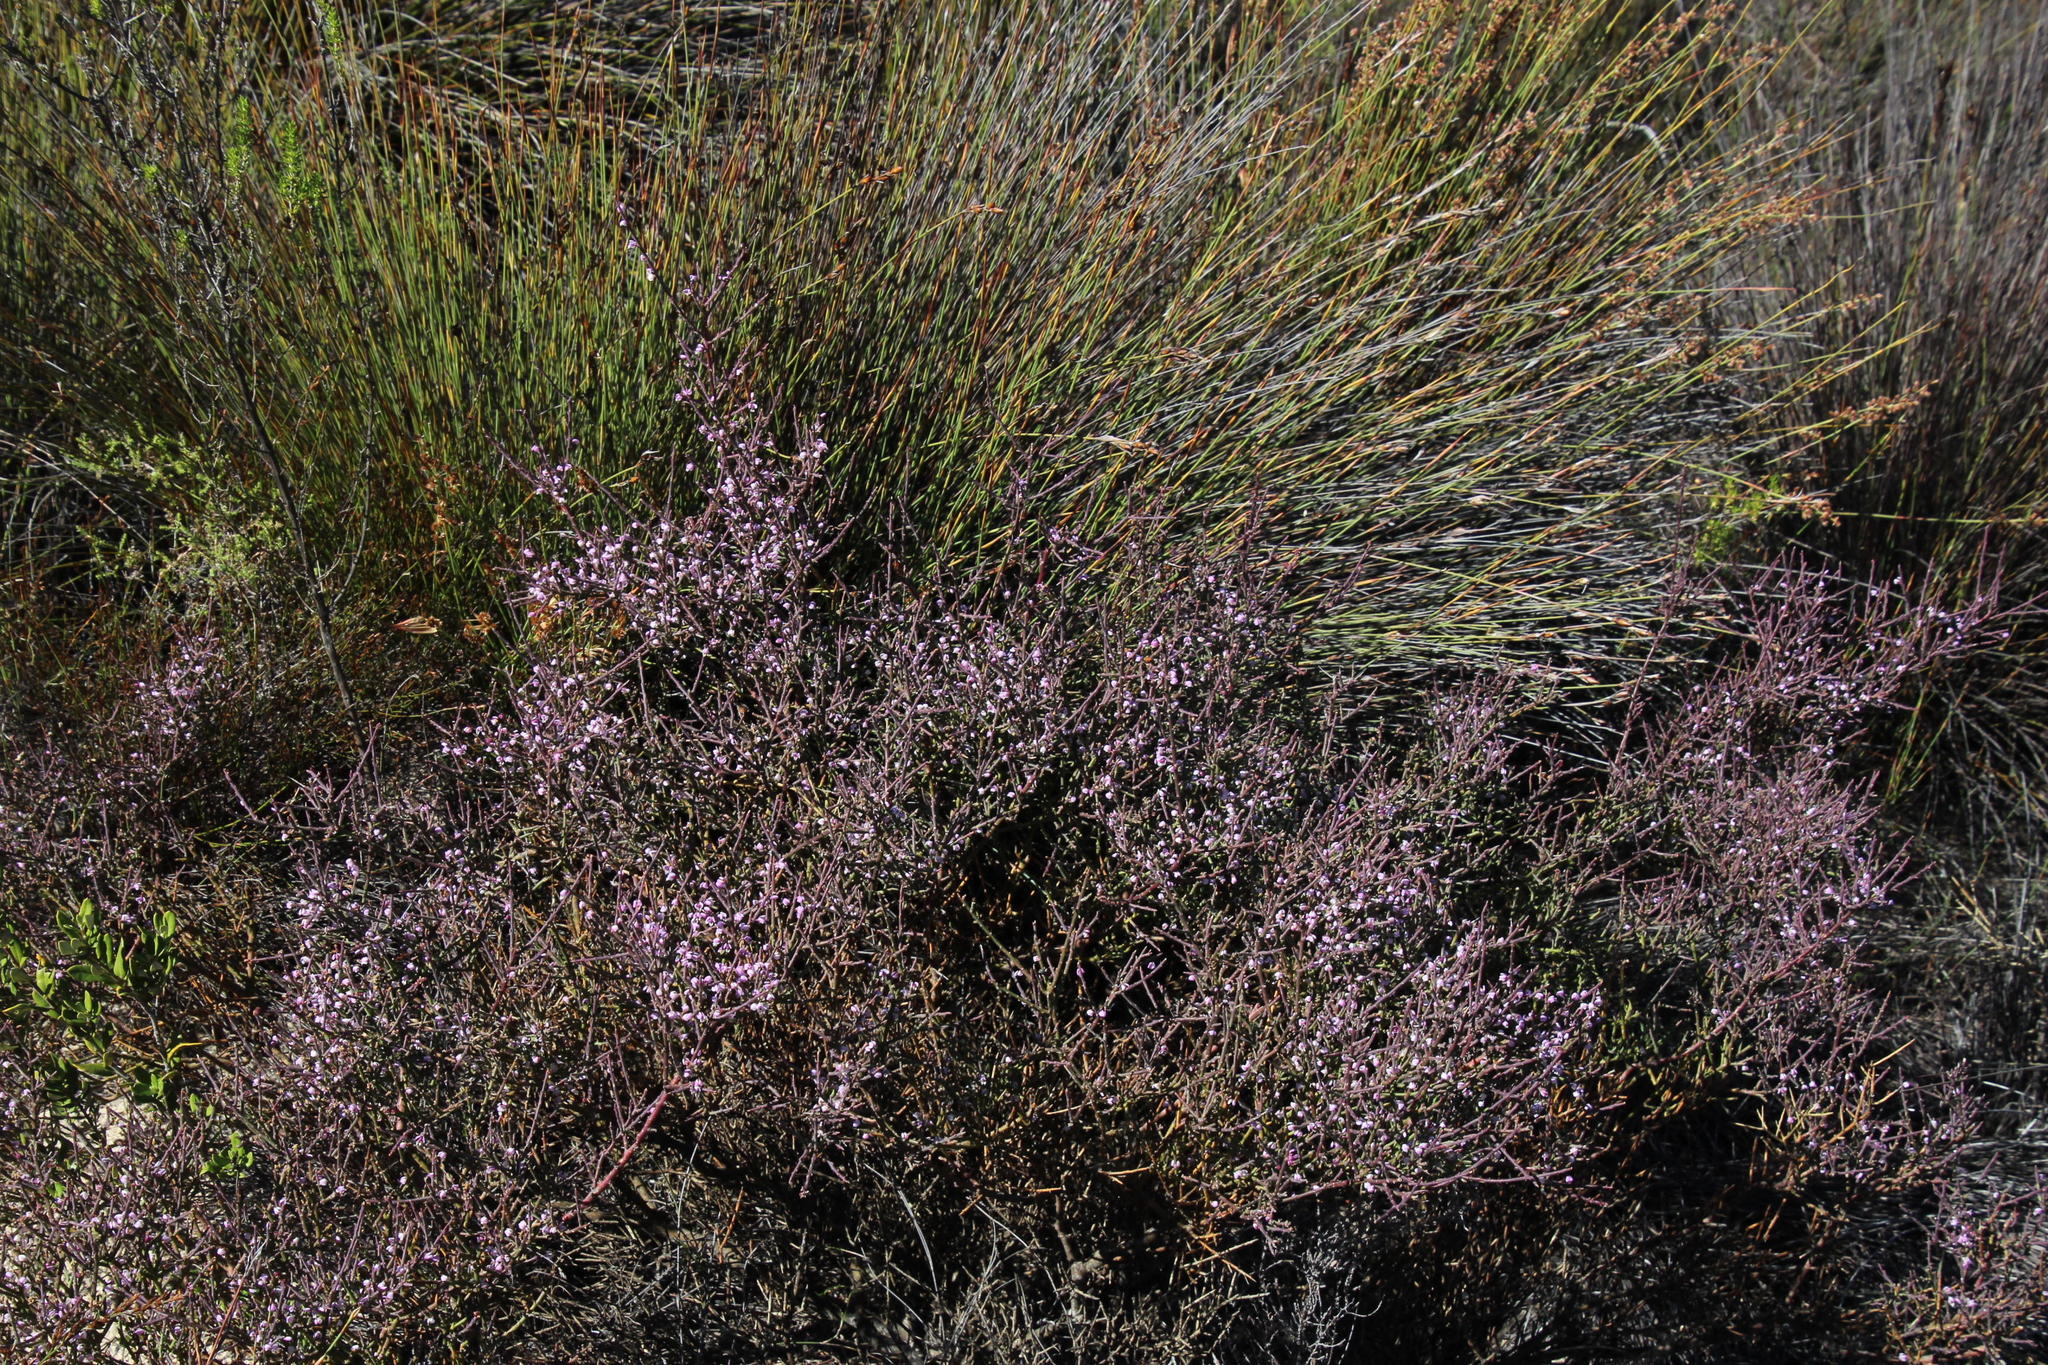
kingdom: Plantae
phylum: Tracheophyta
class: Magnoliopsida
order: Fabales
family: Polygalaceae
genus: Muraltia
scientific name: Muraltia spinosa
